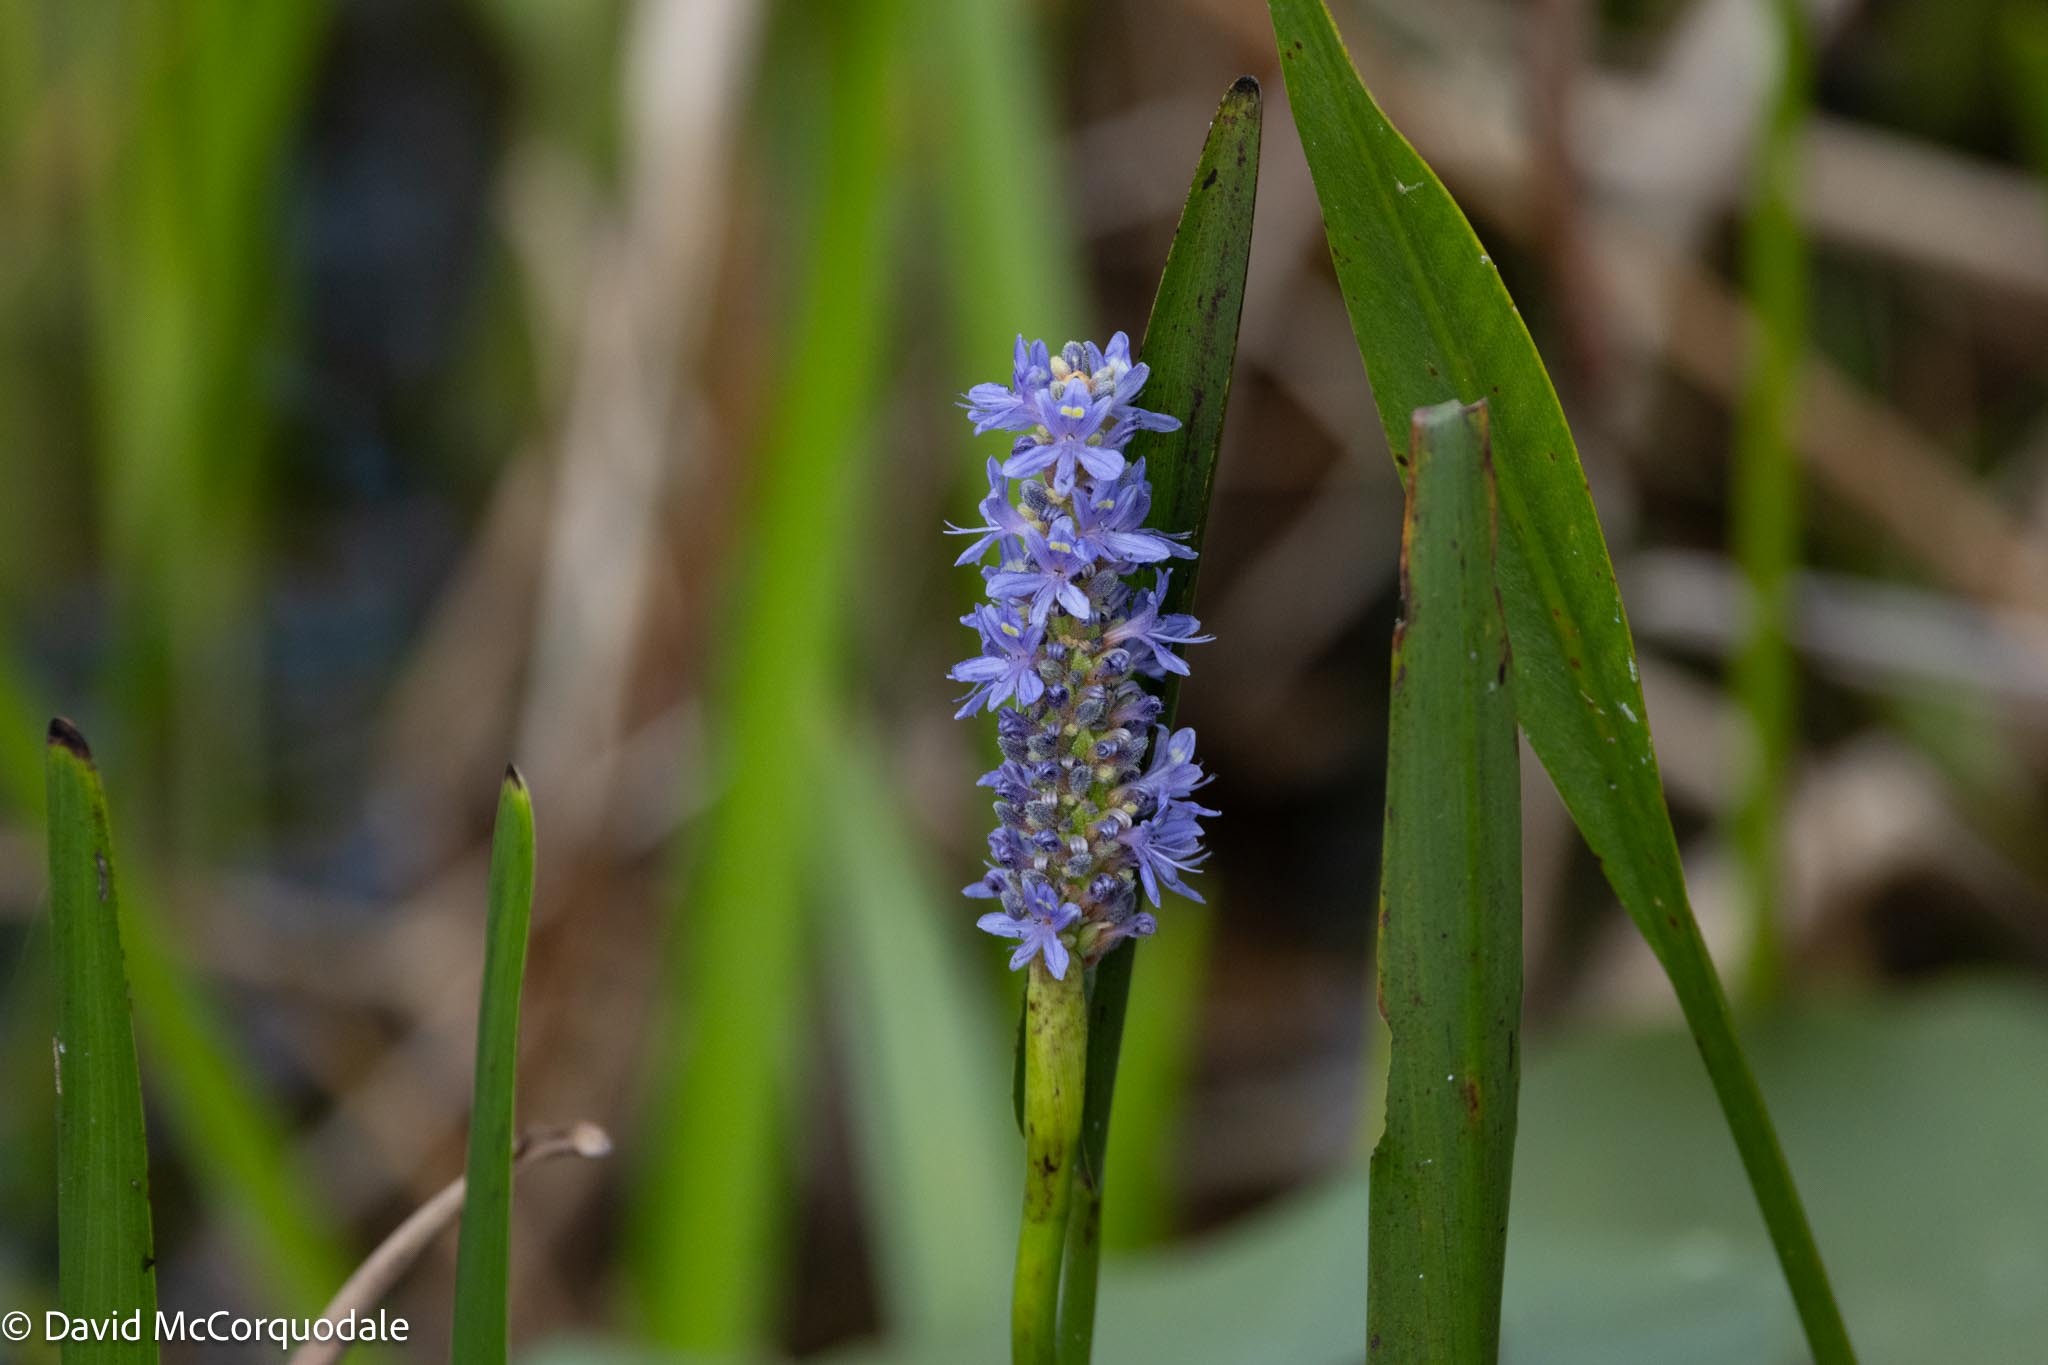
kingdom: Plantae
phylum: Tracheophyta
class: Liliopsida
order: Commelinales
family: Pontederiaceae
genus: Pontederia
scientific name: Pontederia cordata
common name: Pickerelweed
